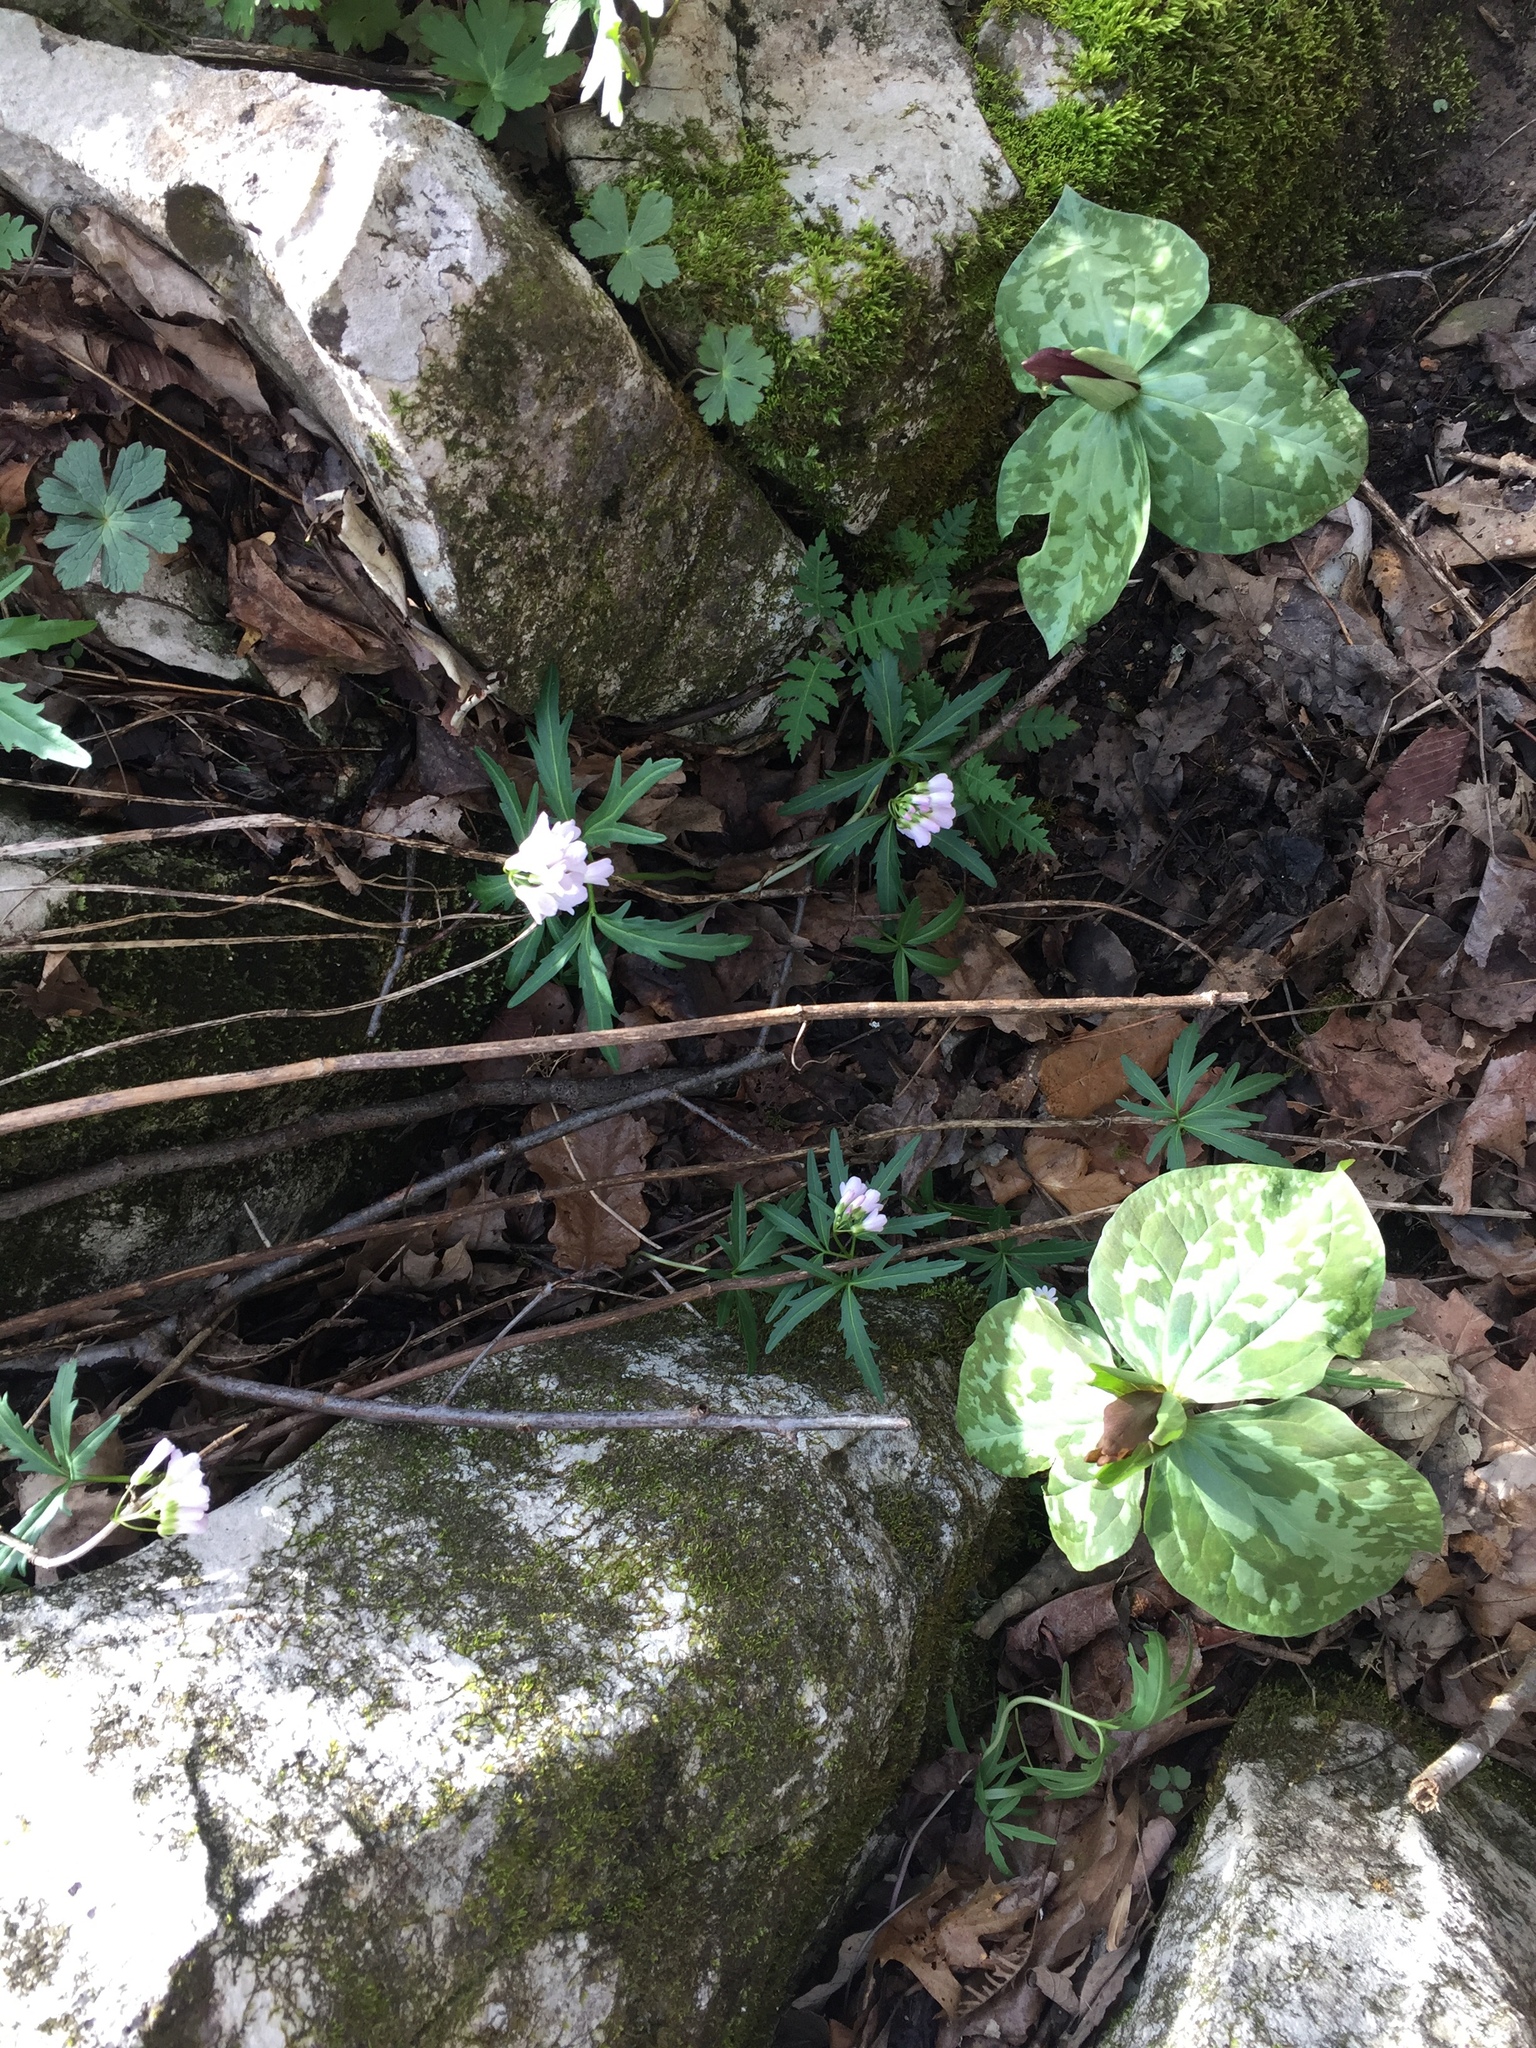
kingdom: Plantae
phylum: Tracheophyta
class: Liliopsida
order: Liliales
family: Melanthiaceae
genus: Trillium
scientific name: Trillium cuneatum
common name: Cuneate trillium
